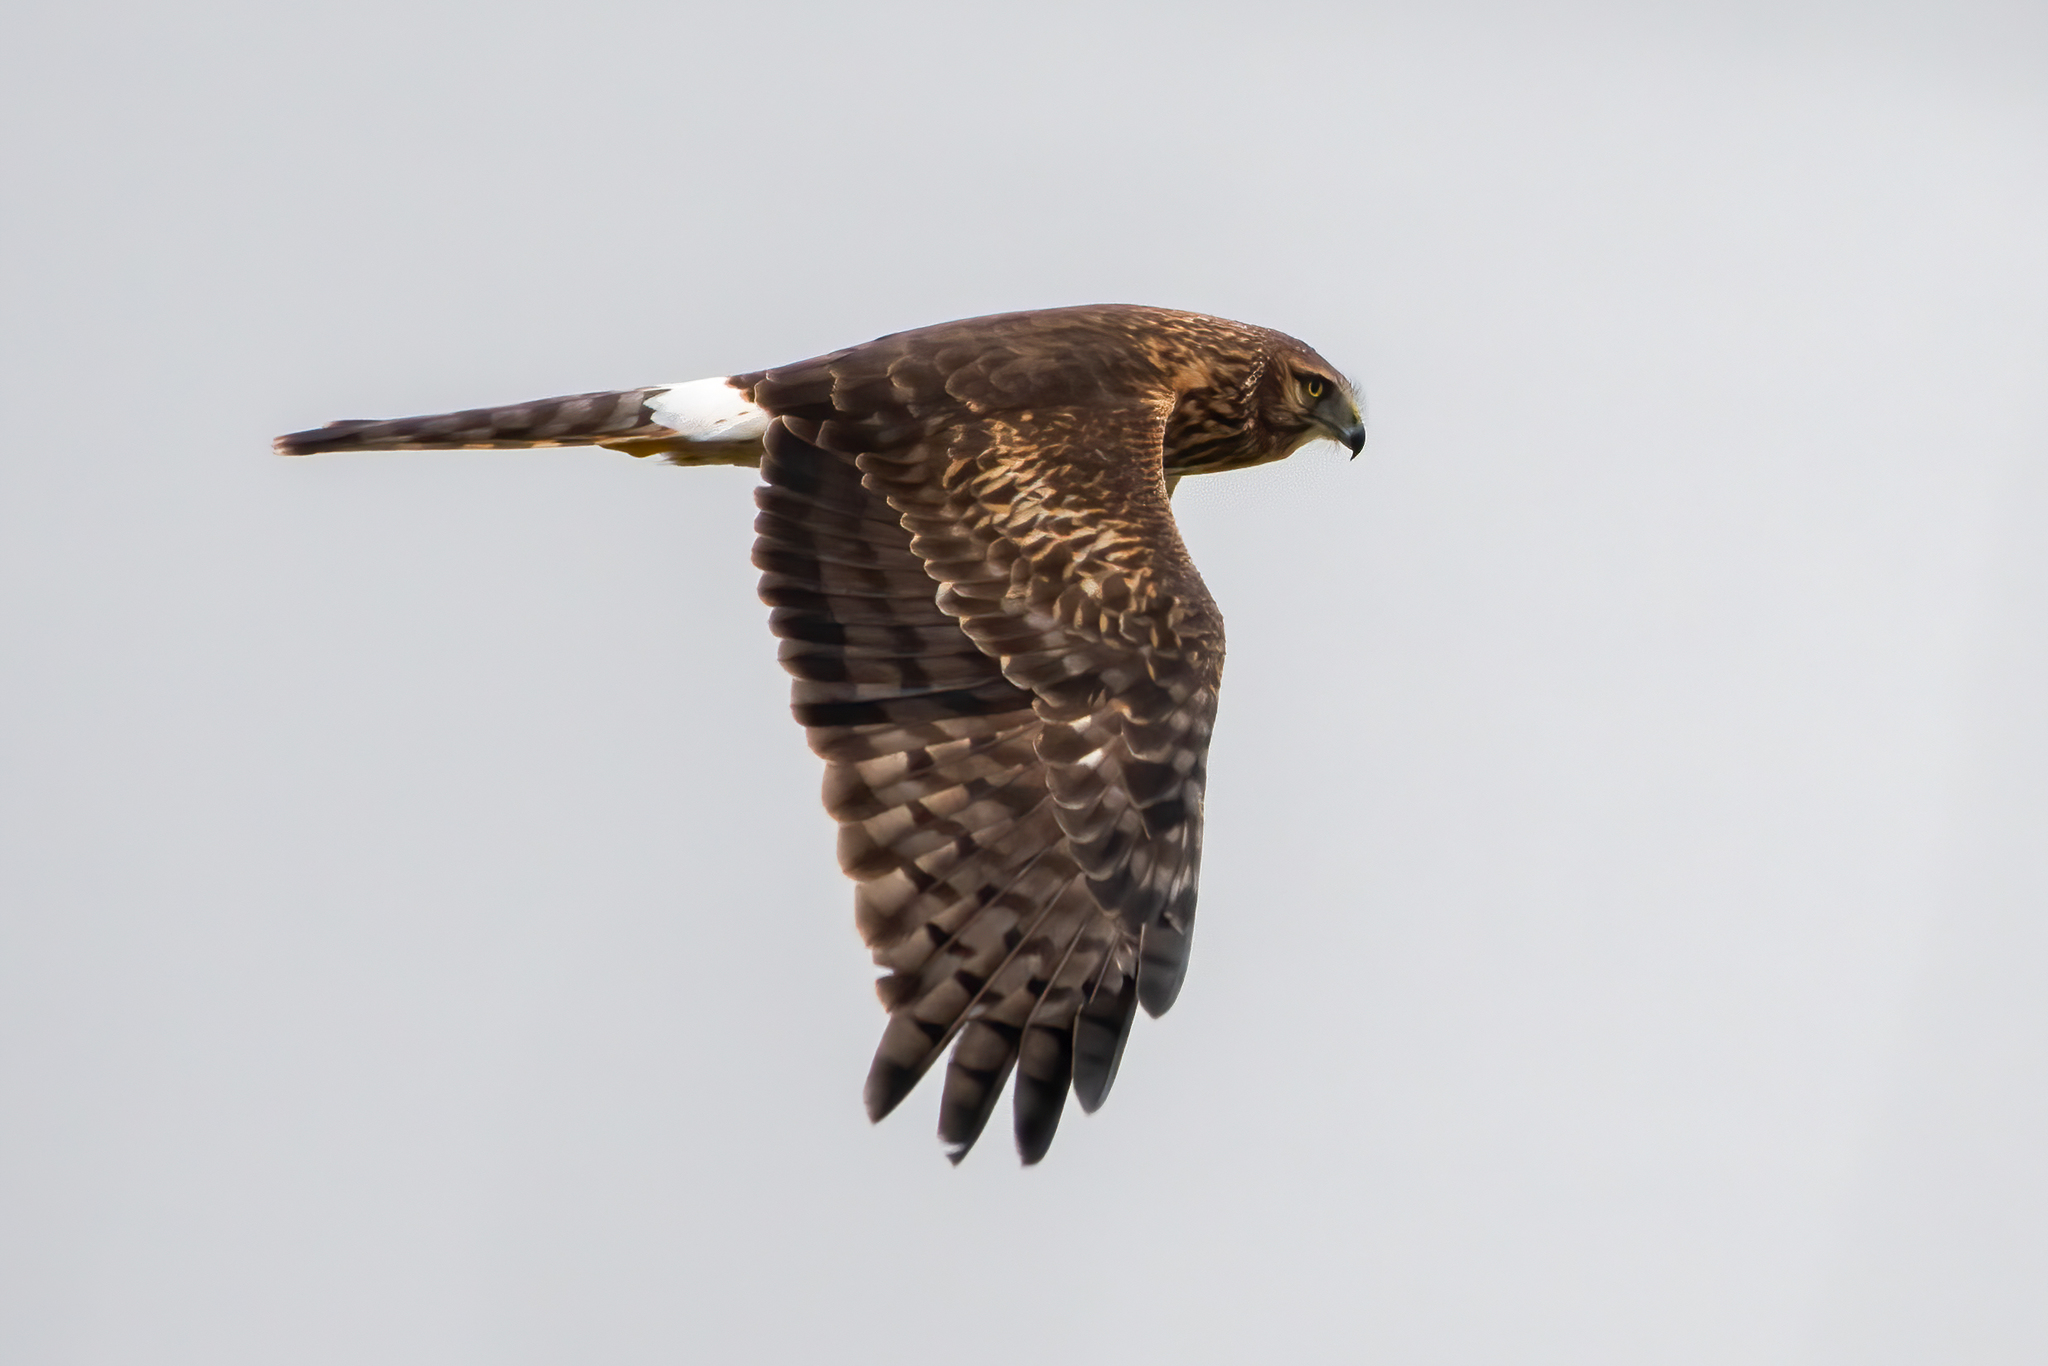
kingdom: Animalia
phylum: Chordata
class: Aves
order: Accipitriformes
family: Accipitridae
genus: Circus
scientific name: Circus cyaneus
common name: Hen harrier
